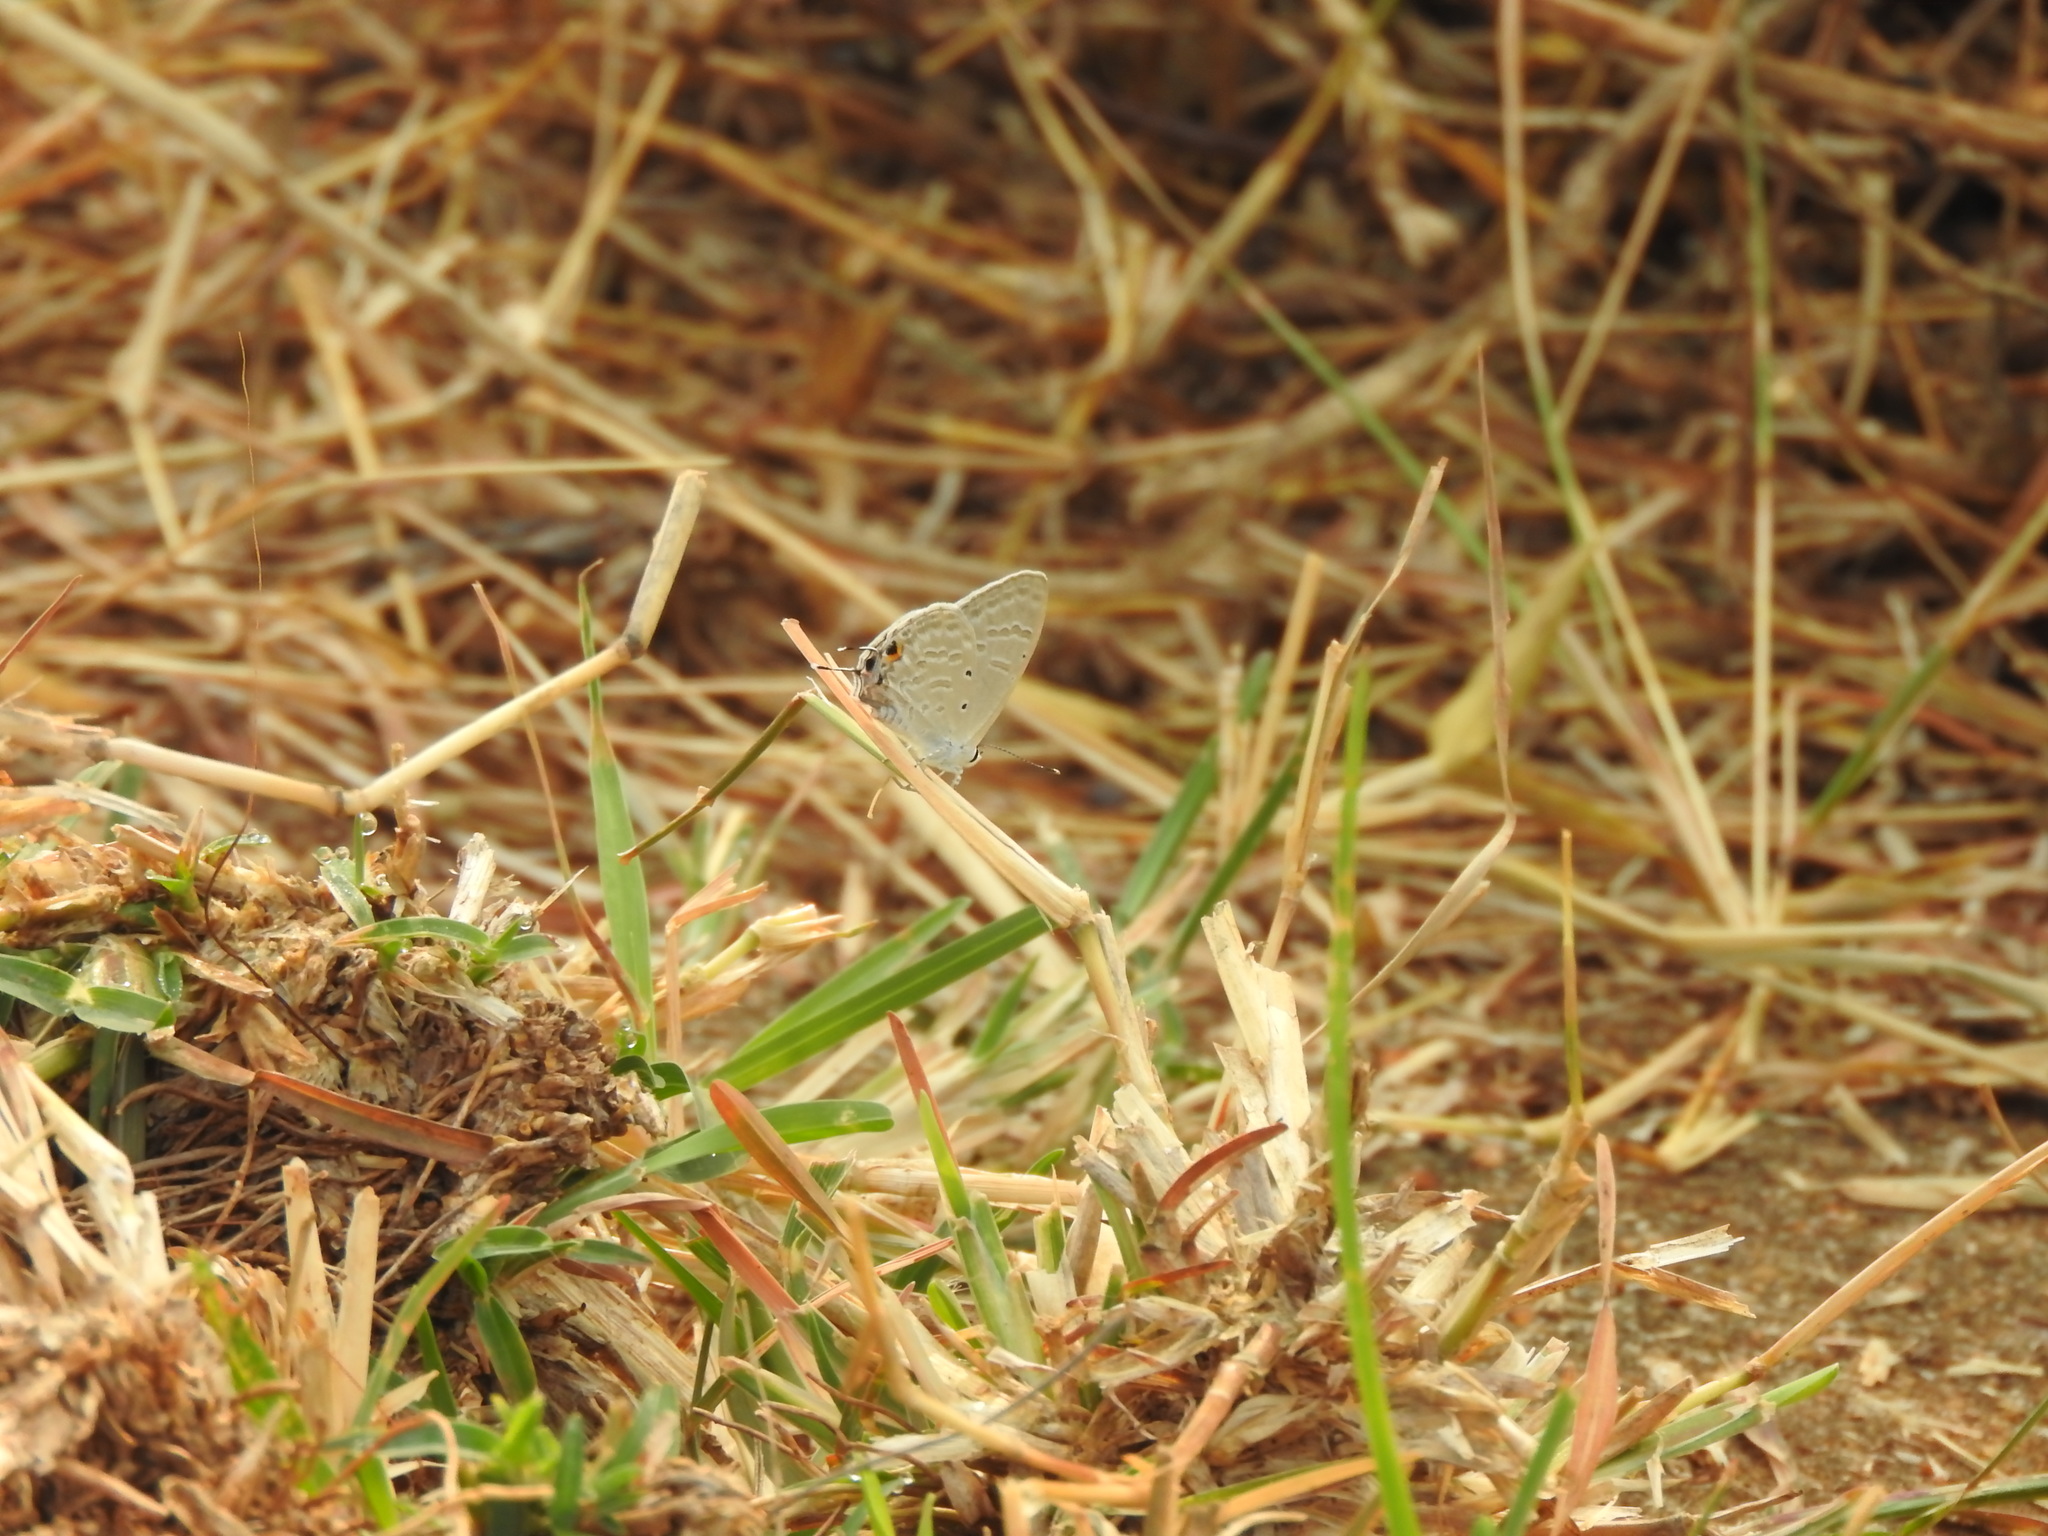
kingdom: Animalia
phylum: Arthropoda
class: Insecta
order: Lepidoptera
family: Lycaenidae
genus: Catochrysops
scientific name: Catochrysops strabo
